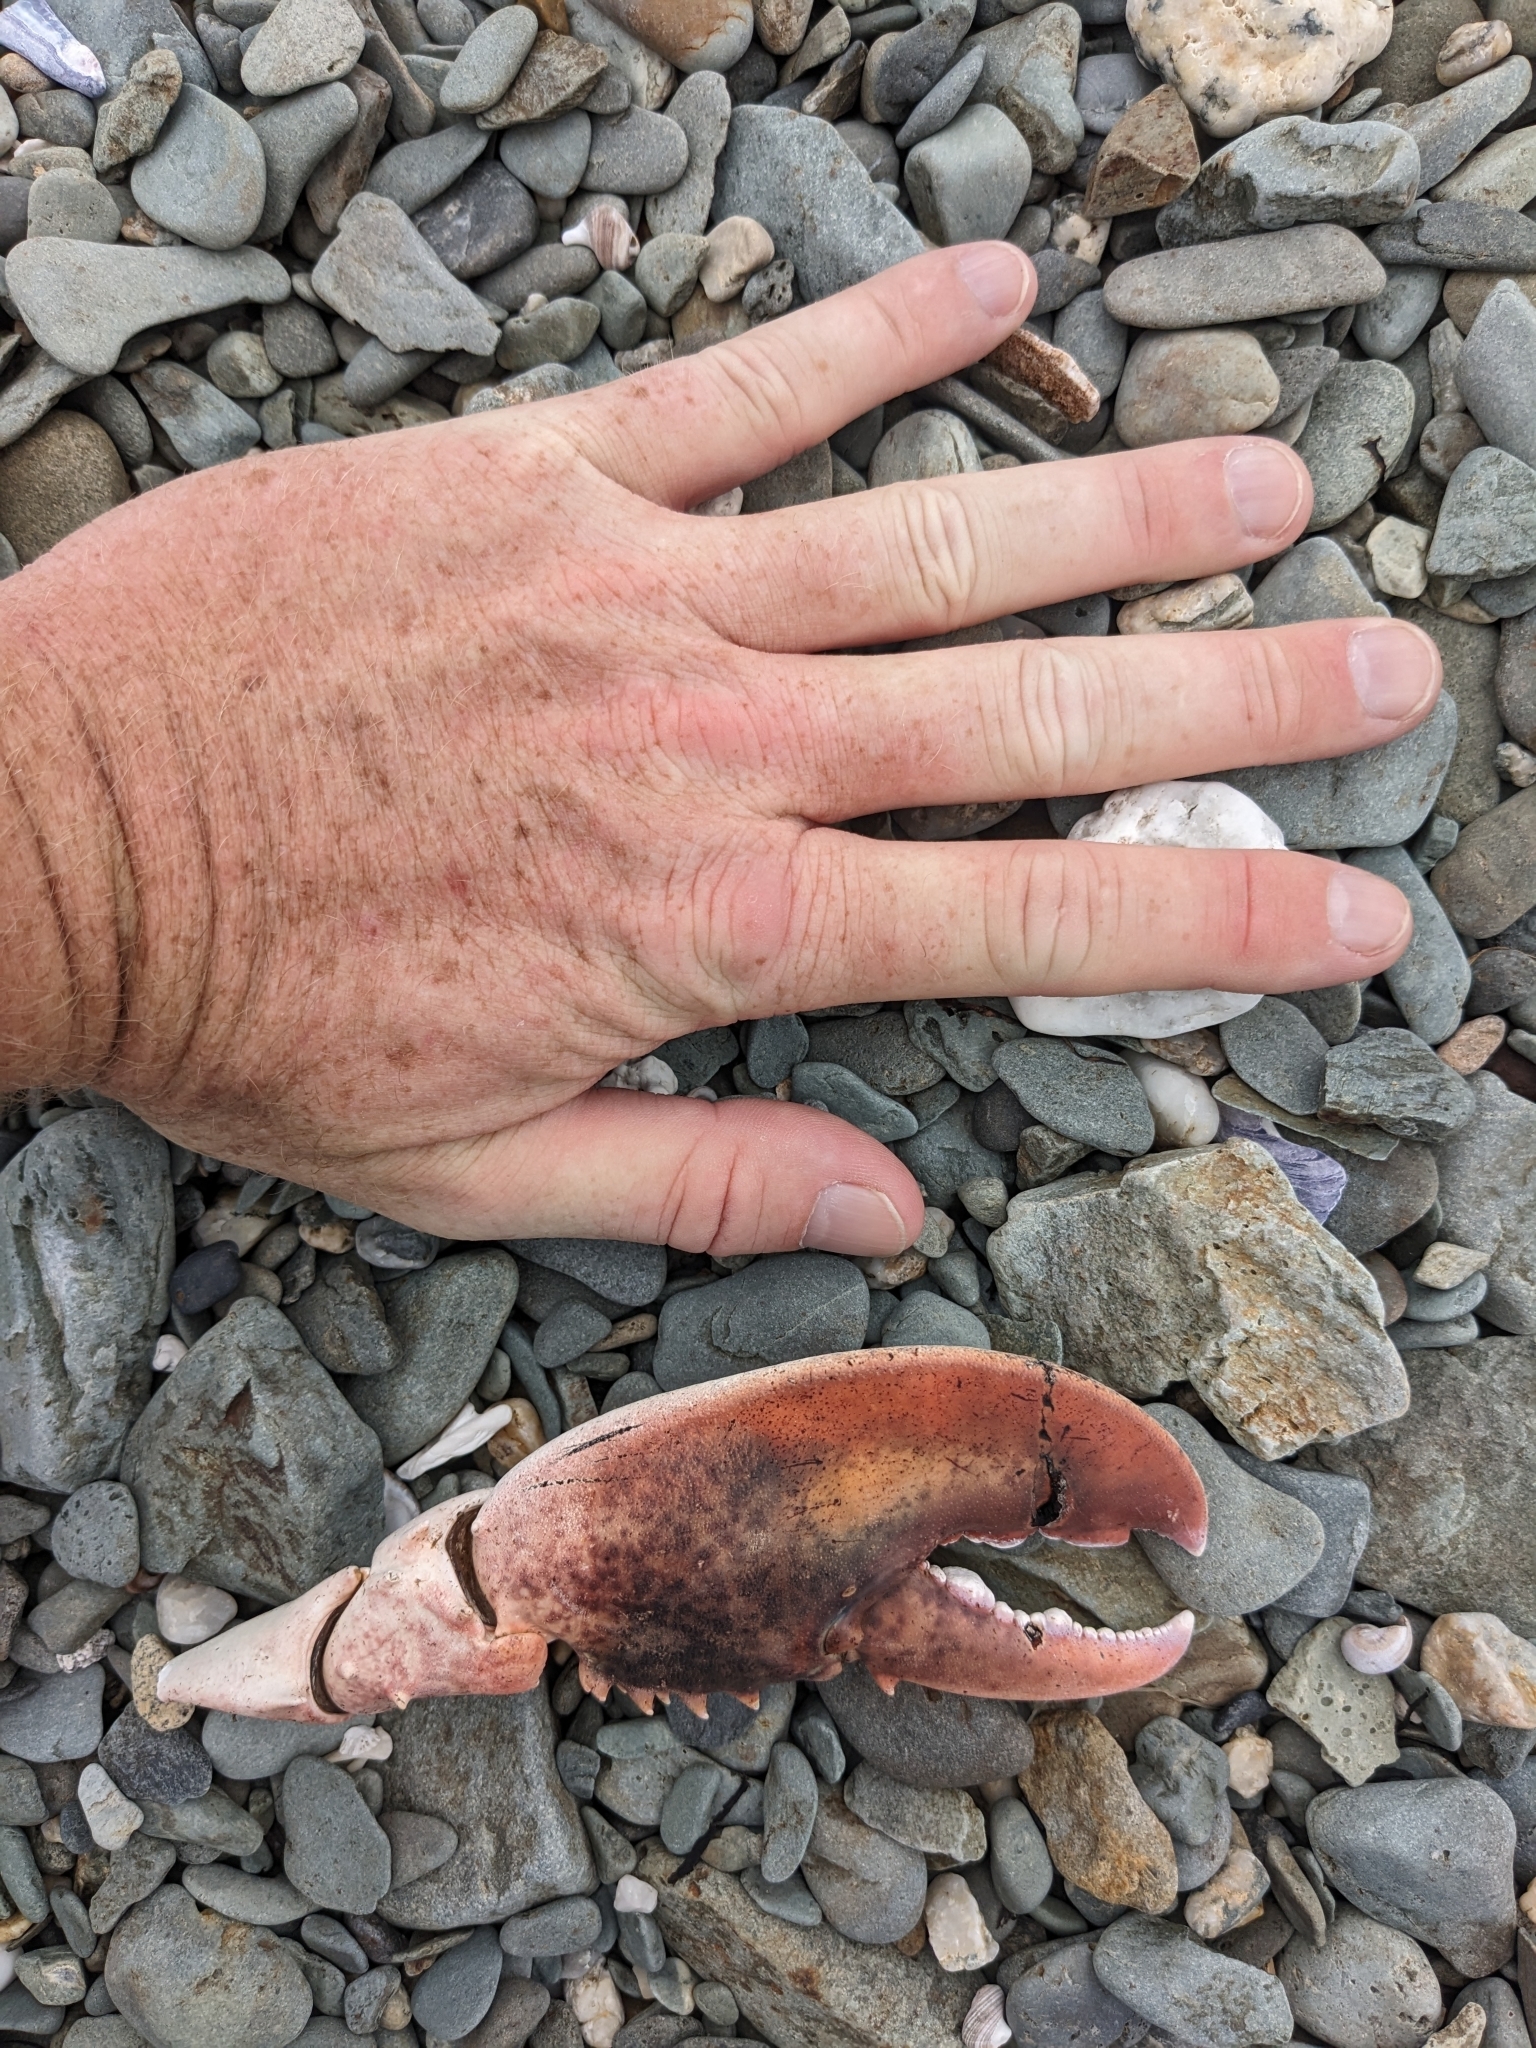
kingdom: Animalia
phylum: Arthropoda
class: Malacostraca
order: Decapoda
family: Nephropidae
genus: Homarus
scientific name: Homarus americanus
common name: American lobster
